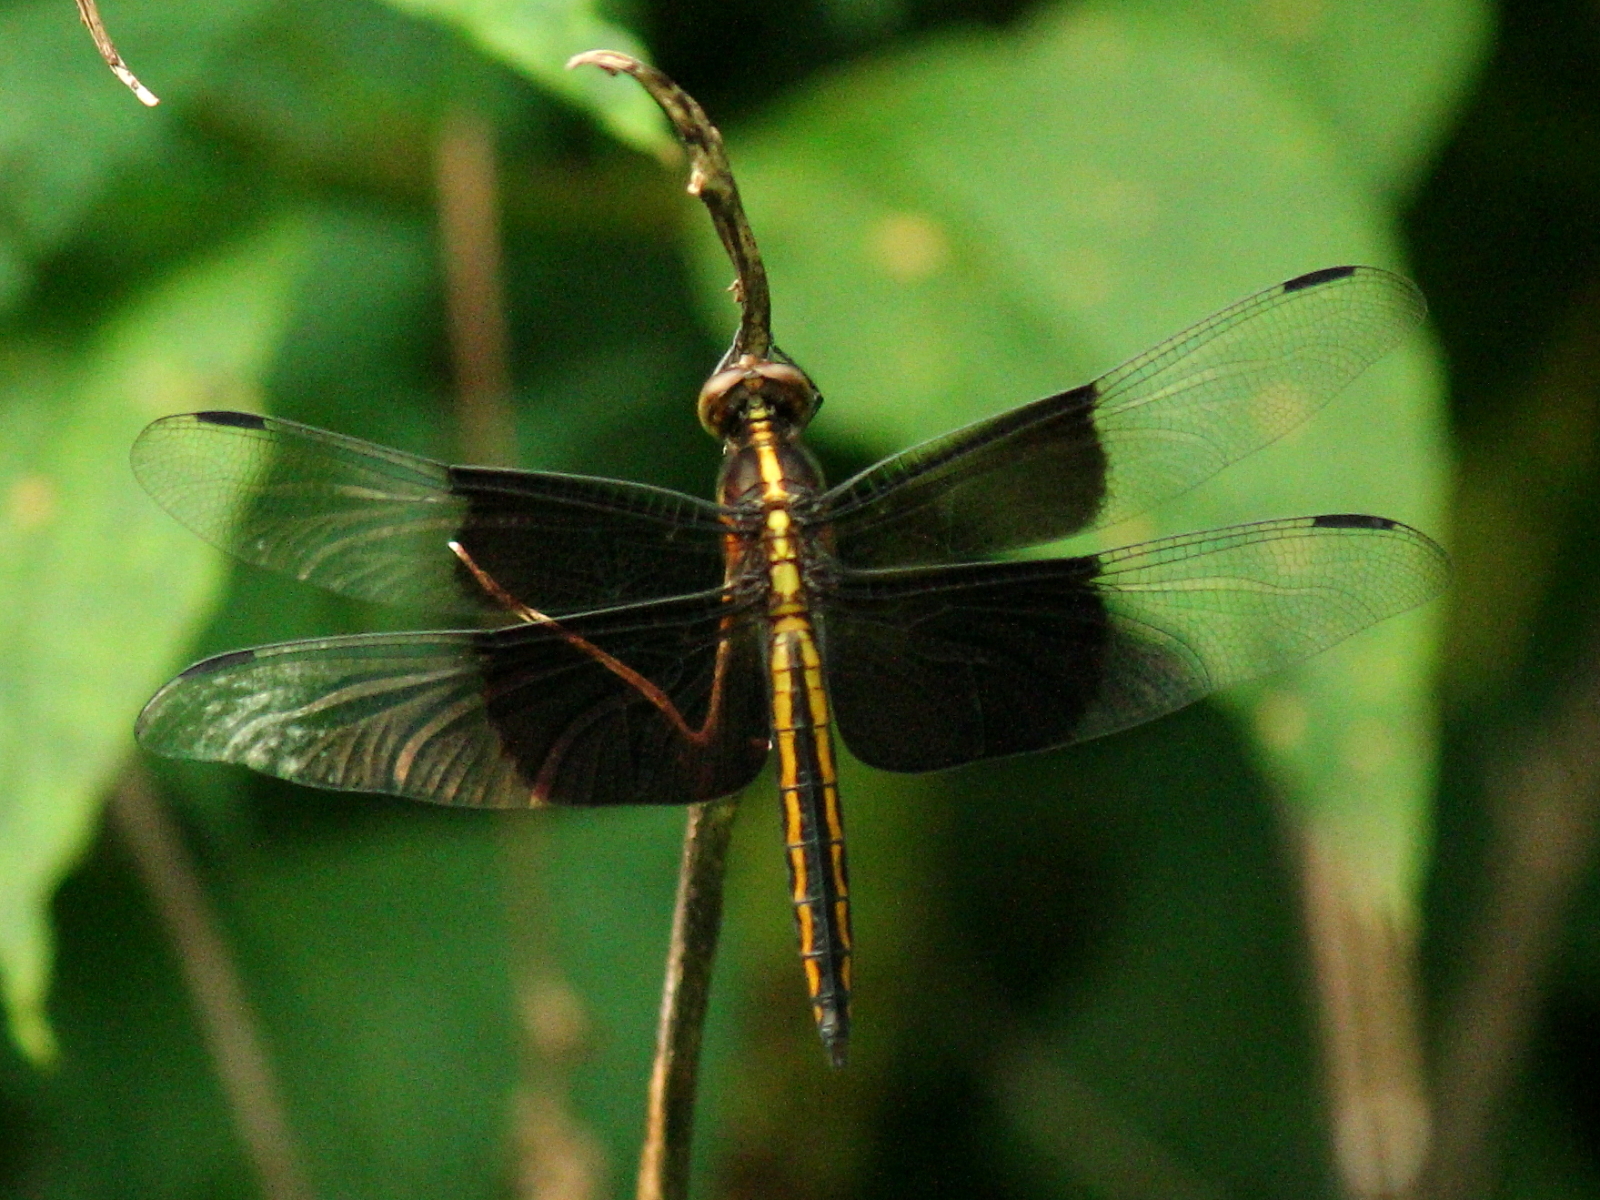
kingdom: Animalia
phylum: Arthropoda
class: Insecta
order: Odonata
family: Libellulidae
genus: Libellula
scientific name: Libellula luctuosa
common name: Widow skimmer
